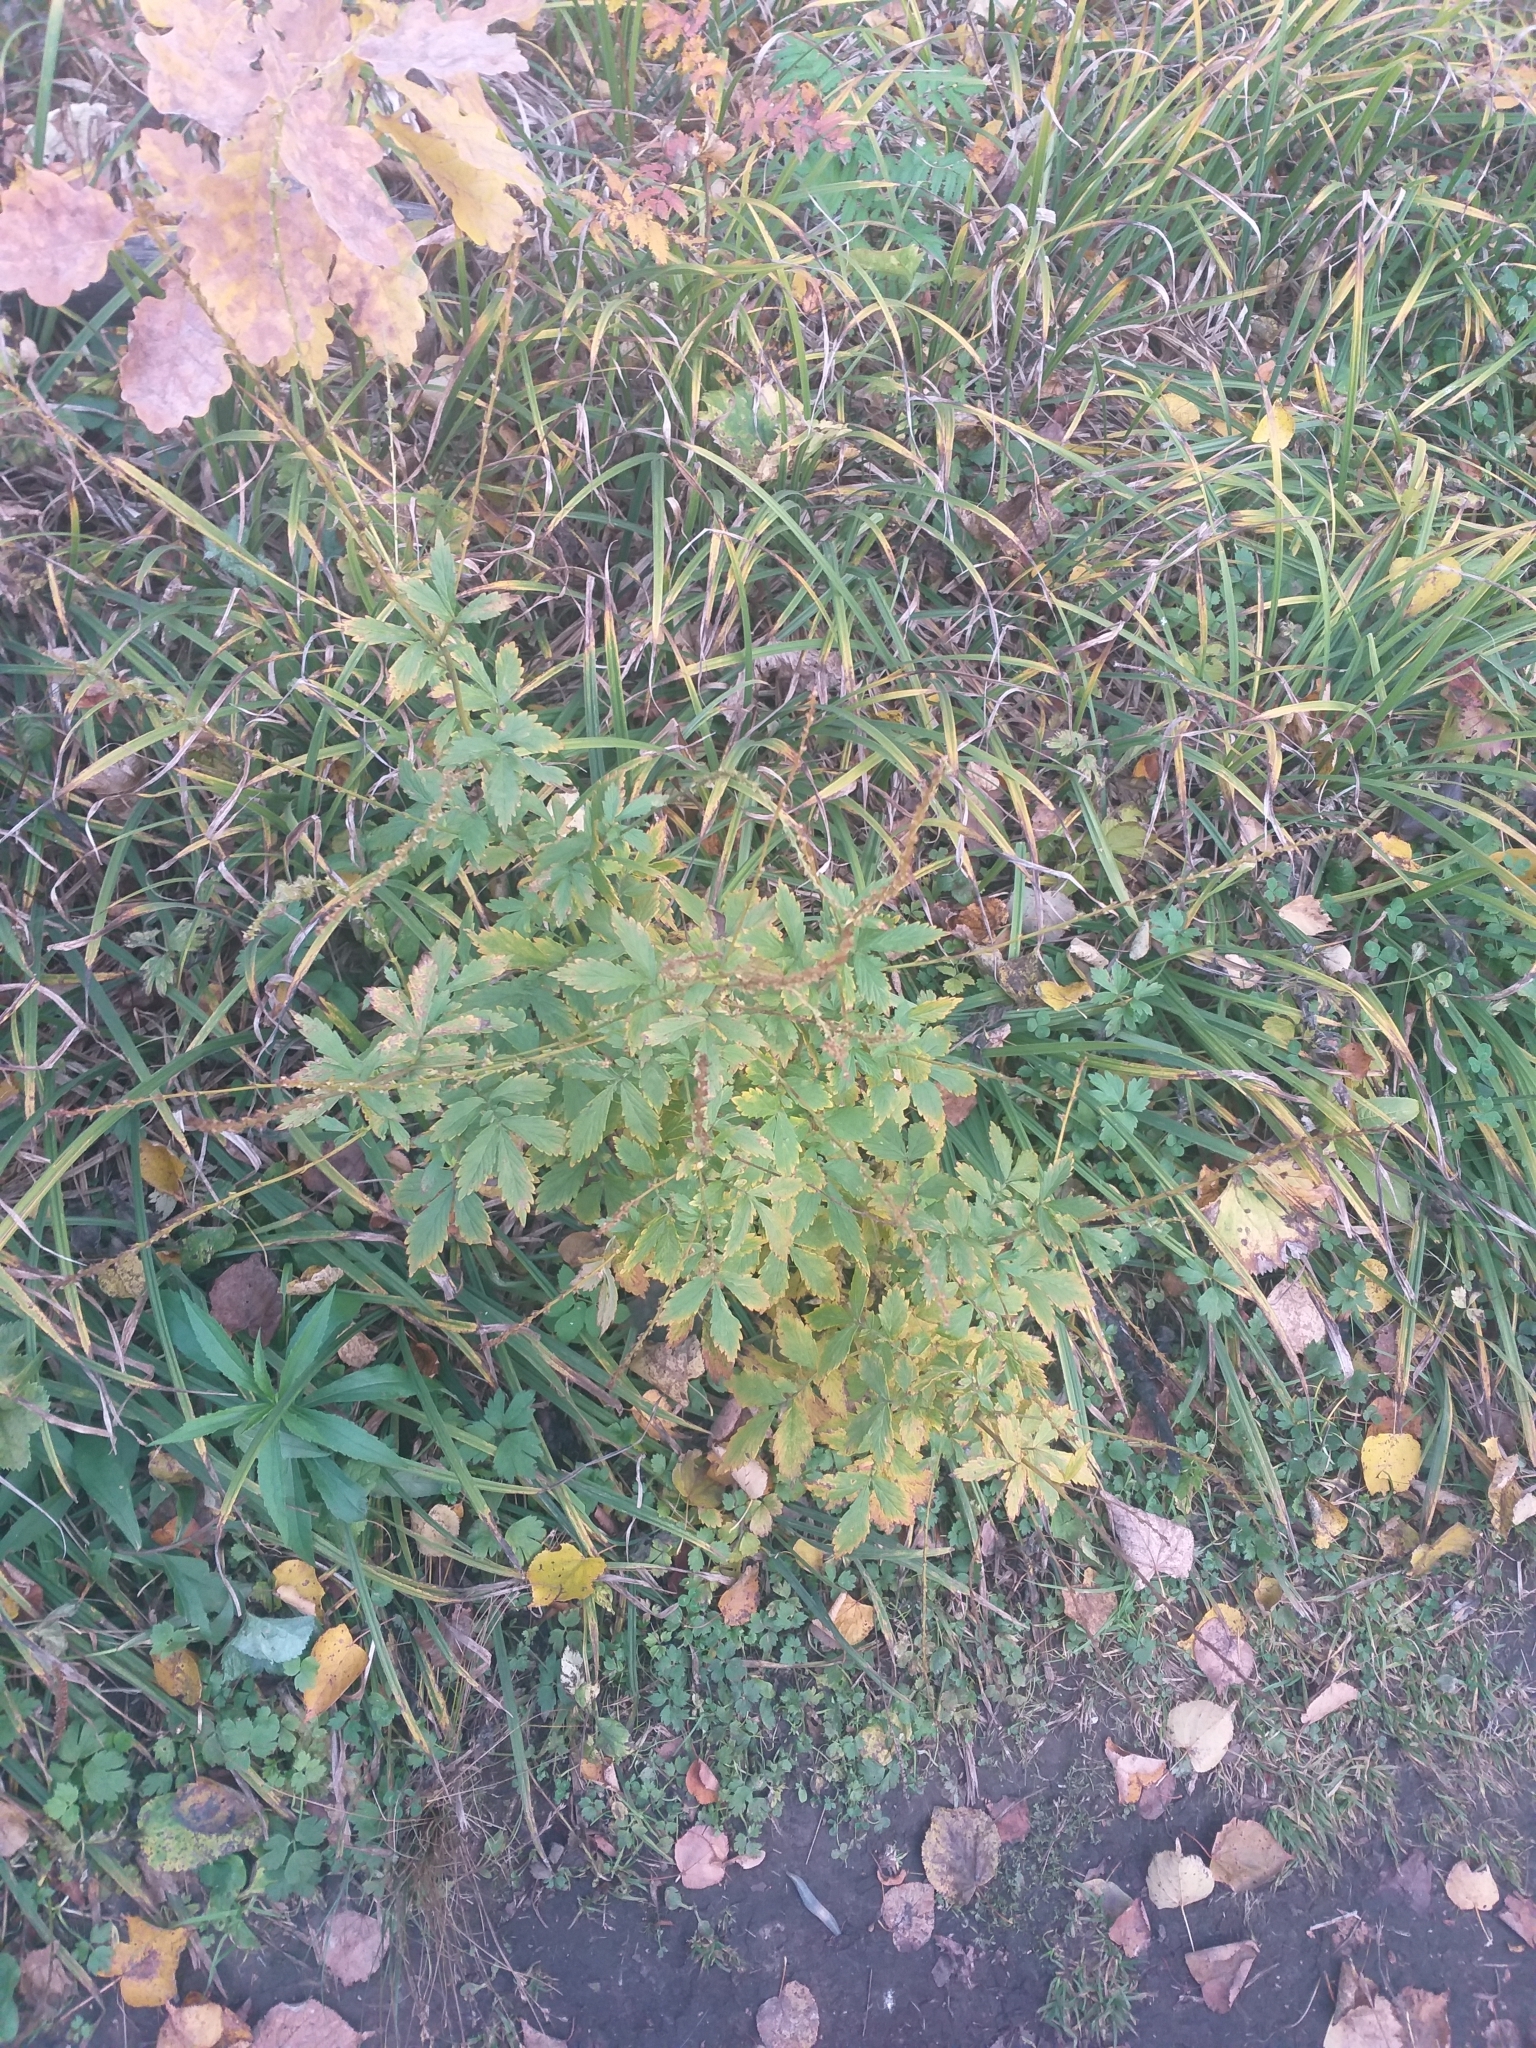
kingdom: Plantae
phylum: Tracheophyta
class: Magnoliopsida
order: Rosales
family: Rosaceae
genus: Agrimonia
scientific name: Agrimonia pilosa
